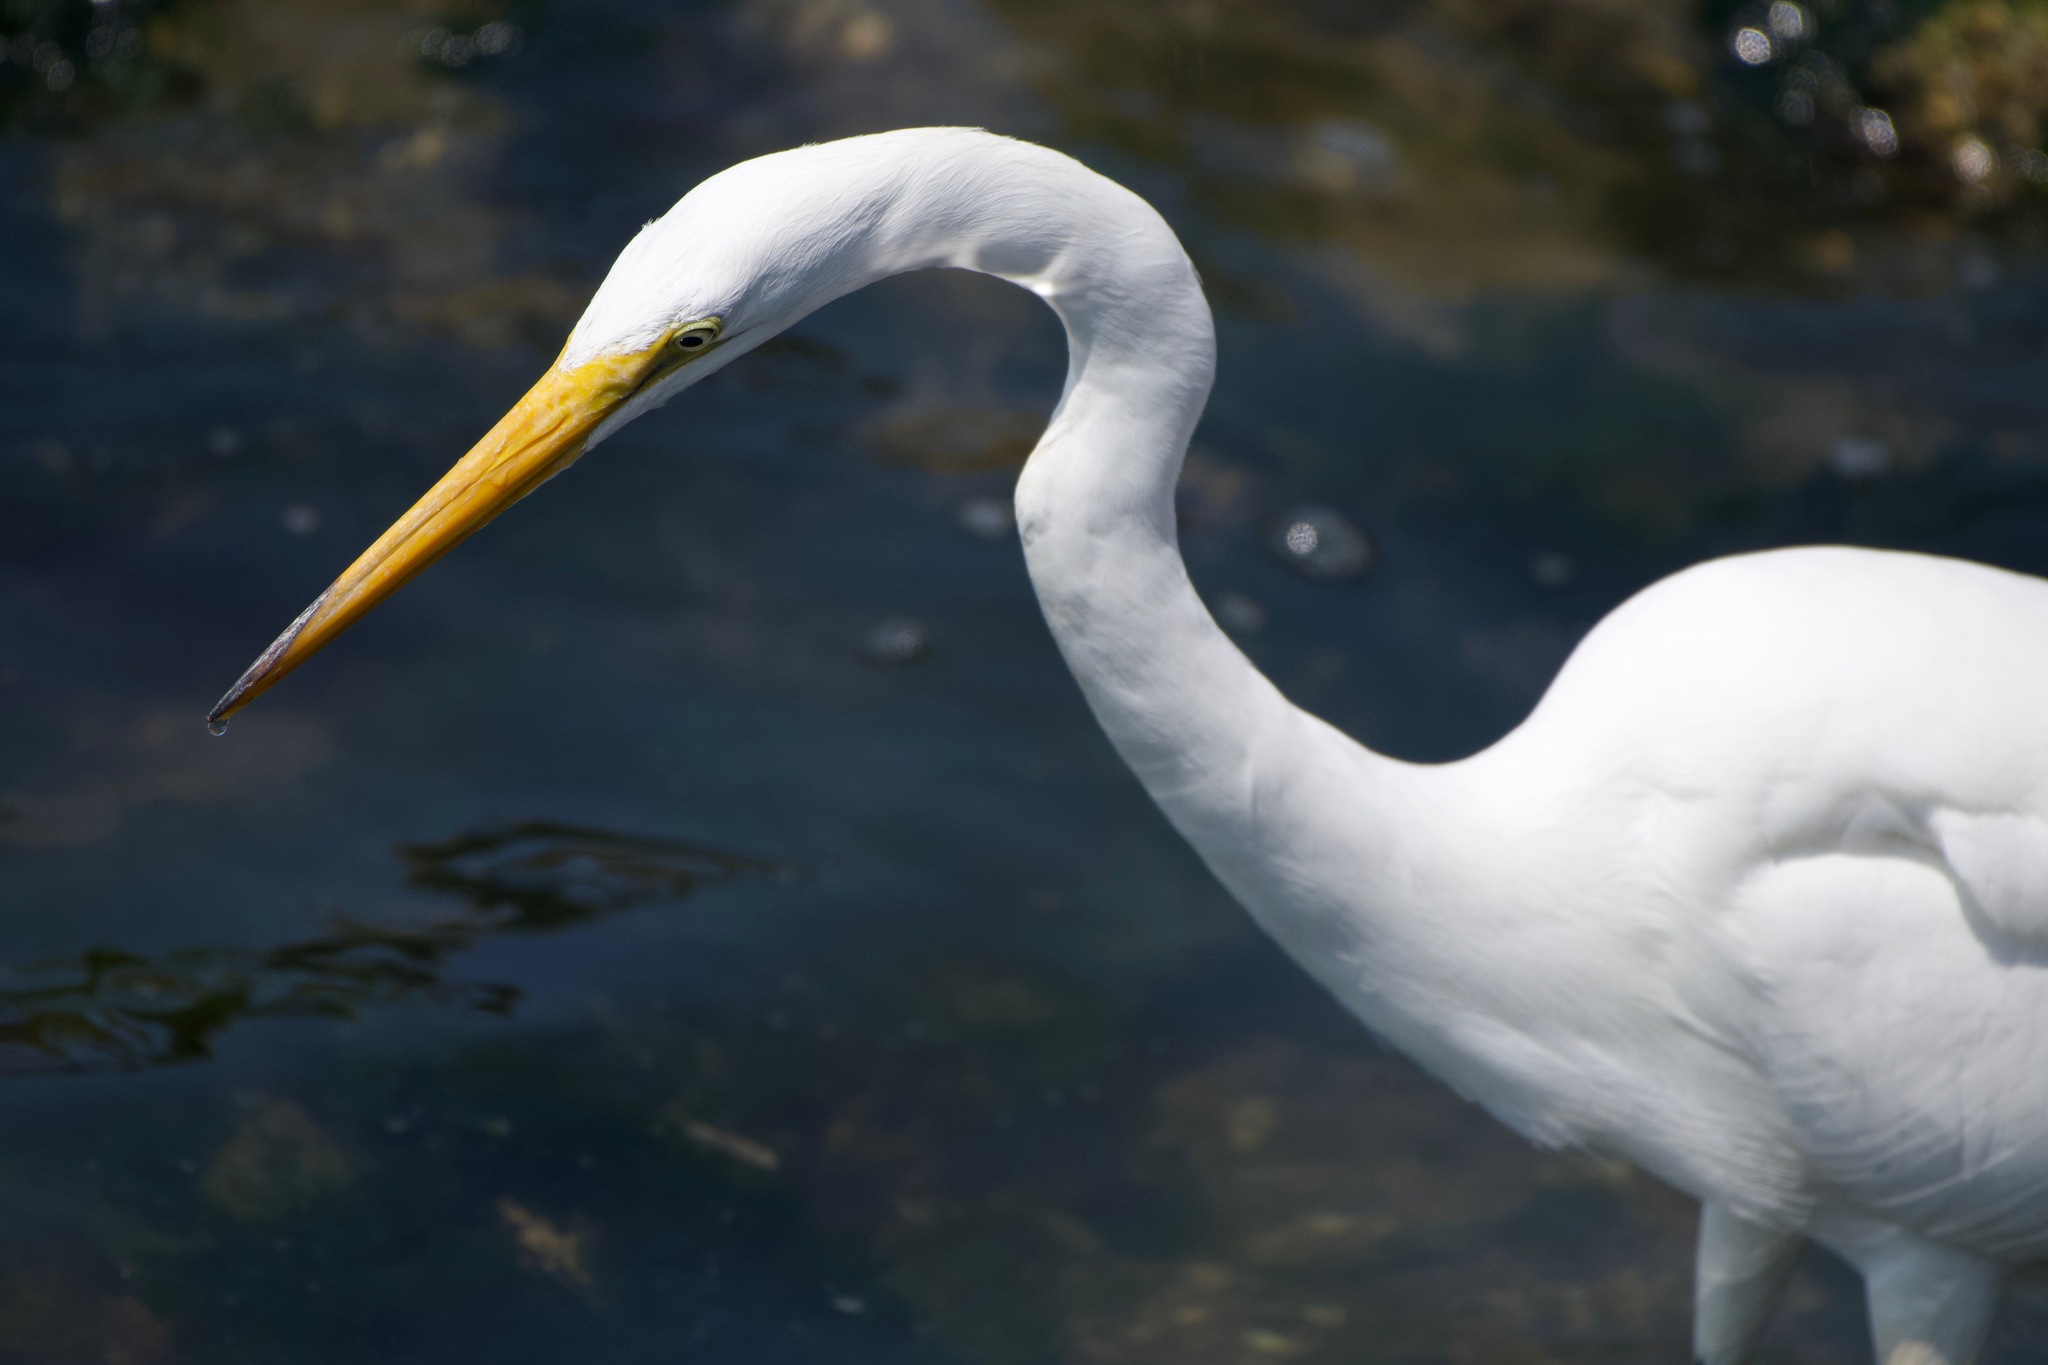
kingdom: Animalia
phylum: Chordata
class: Aves
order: Pelecaniformes
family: Ardeidae
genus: Ardea
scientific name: Ardea alba
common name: Great egret
